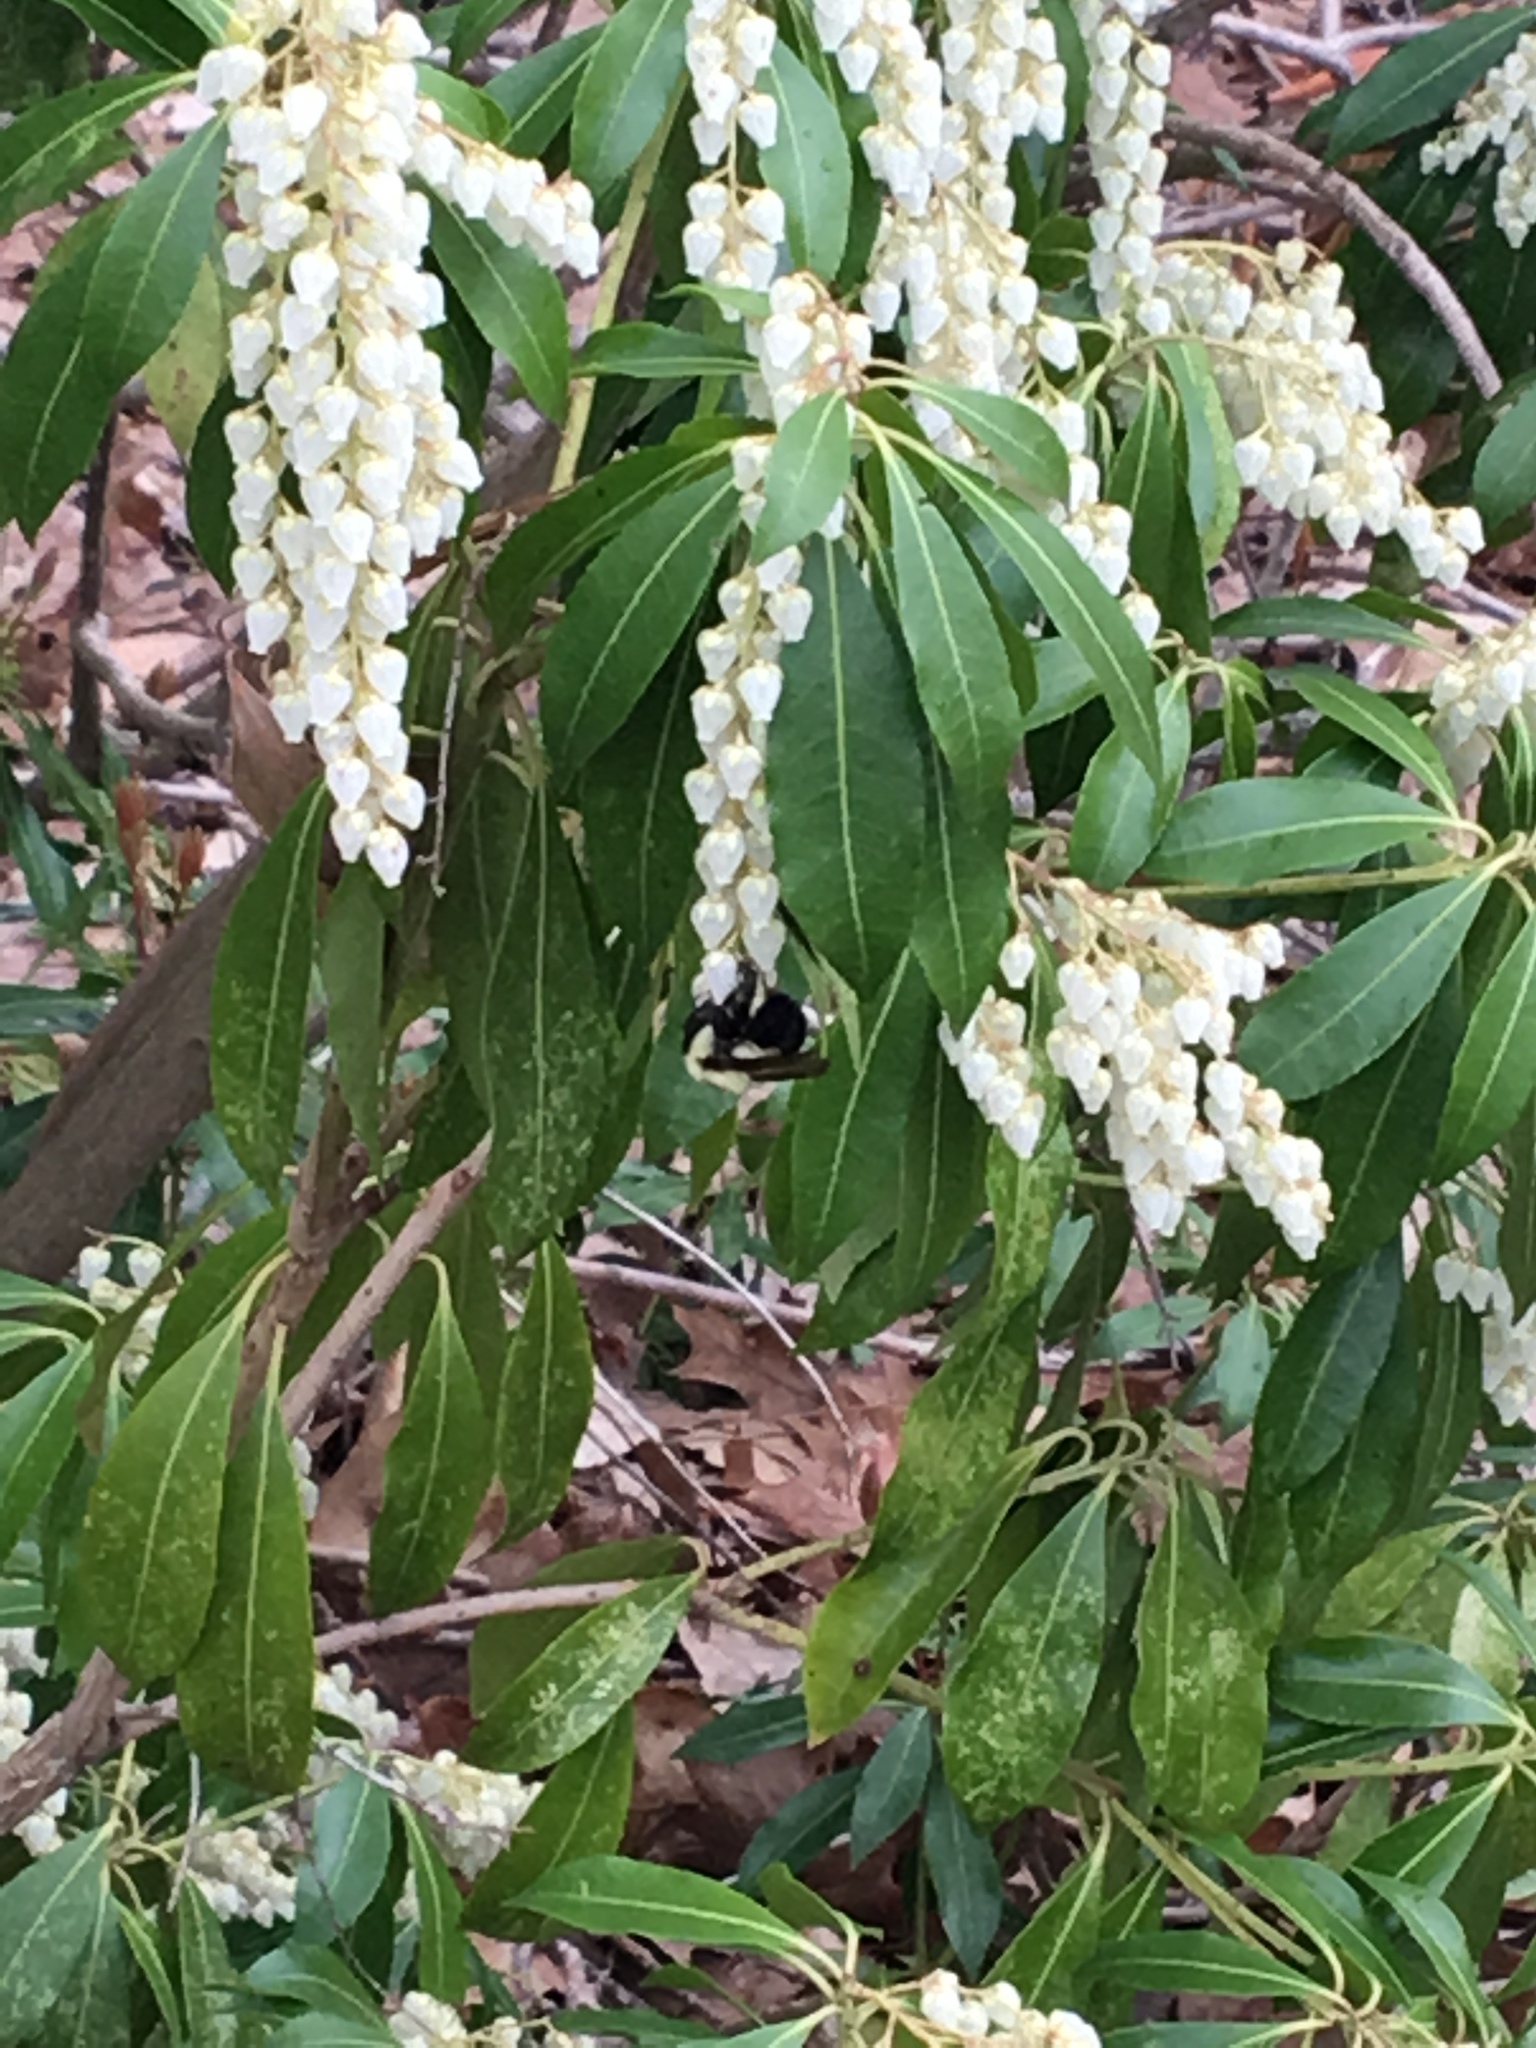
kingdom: Animalia
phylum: Arthropoda
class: Insecta
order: Hymenoptera
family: Apidae
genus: Bombus
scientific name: Bombus bimaculatus
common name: Two-spotted bumble bee
